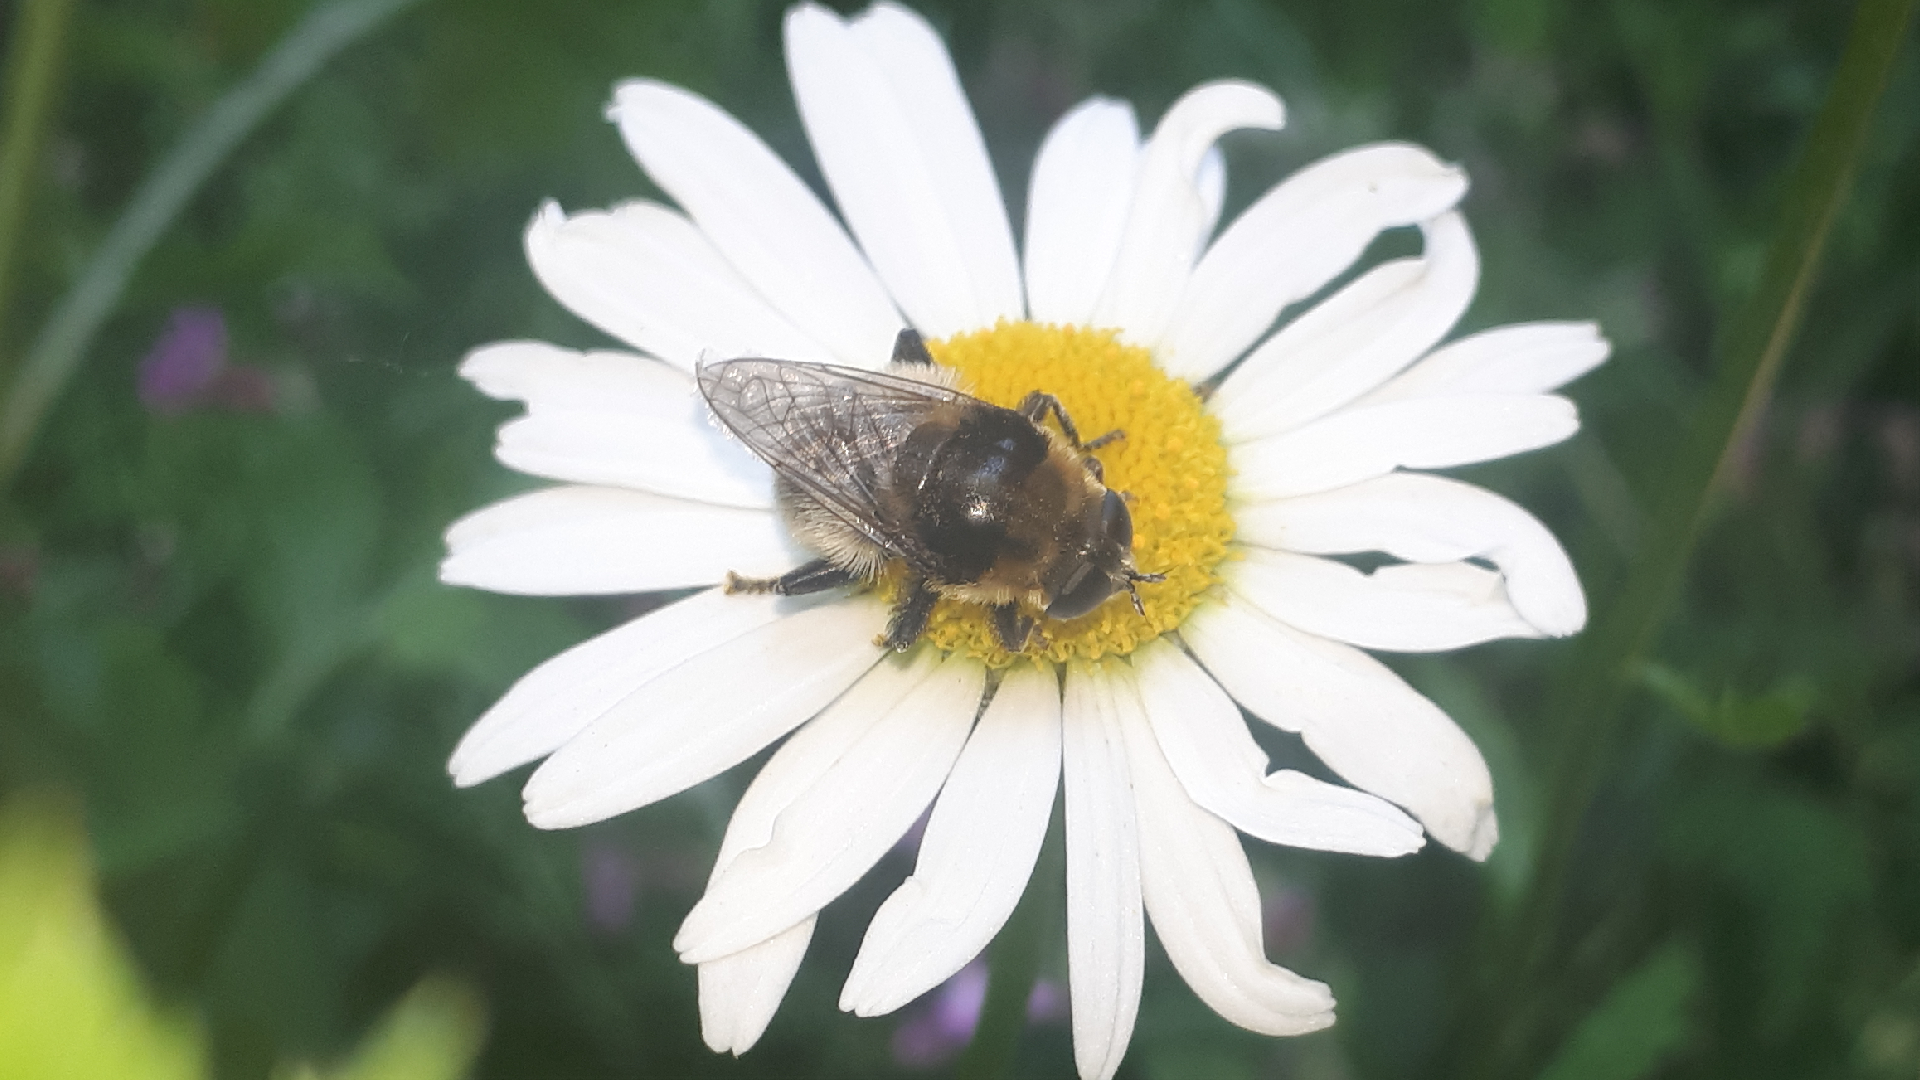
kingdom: Animalia
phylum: Arthropoda
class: Insecta
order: Diptera
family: Syrphidae
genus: Merodon
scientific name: Merodon equestris
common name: Greater bulb-fly
